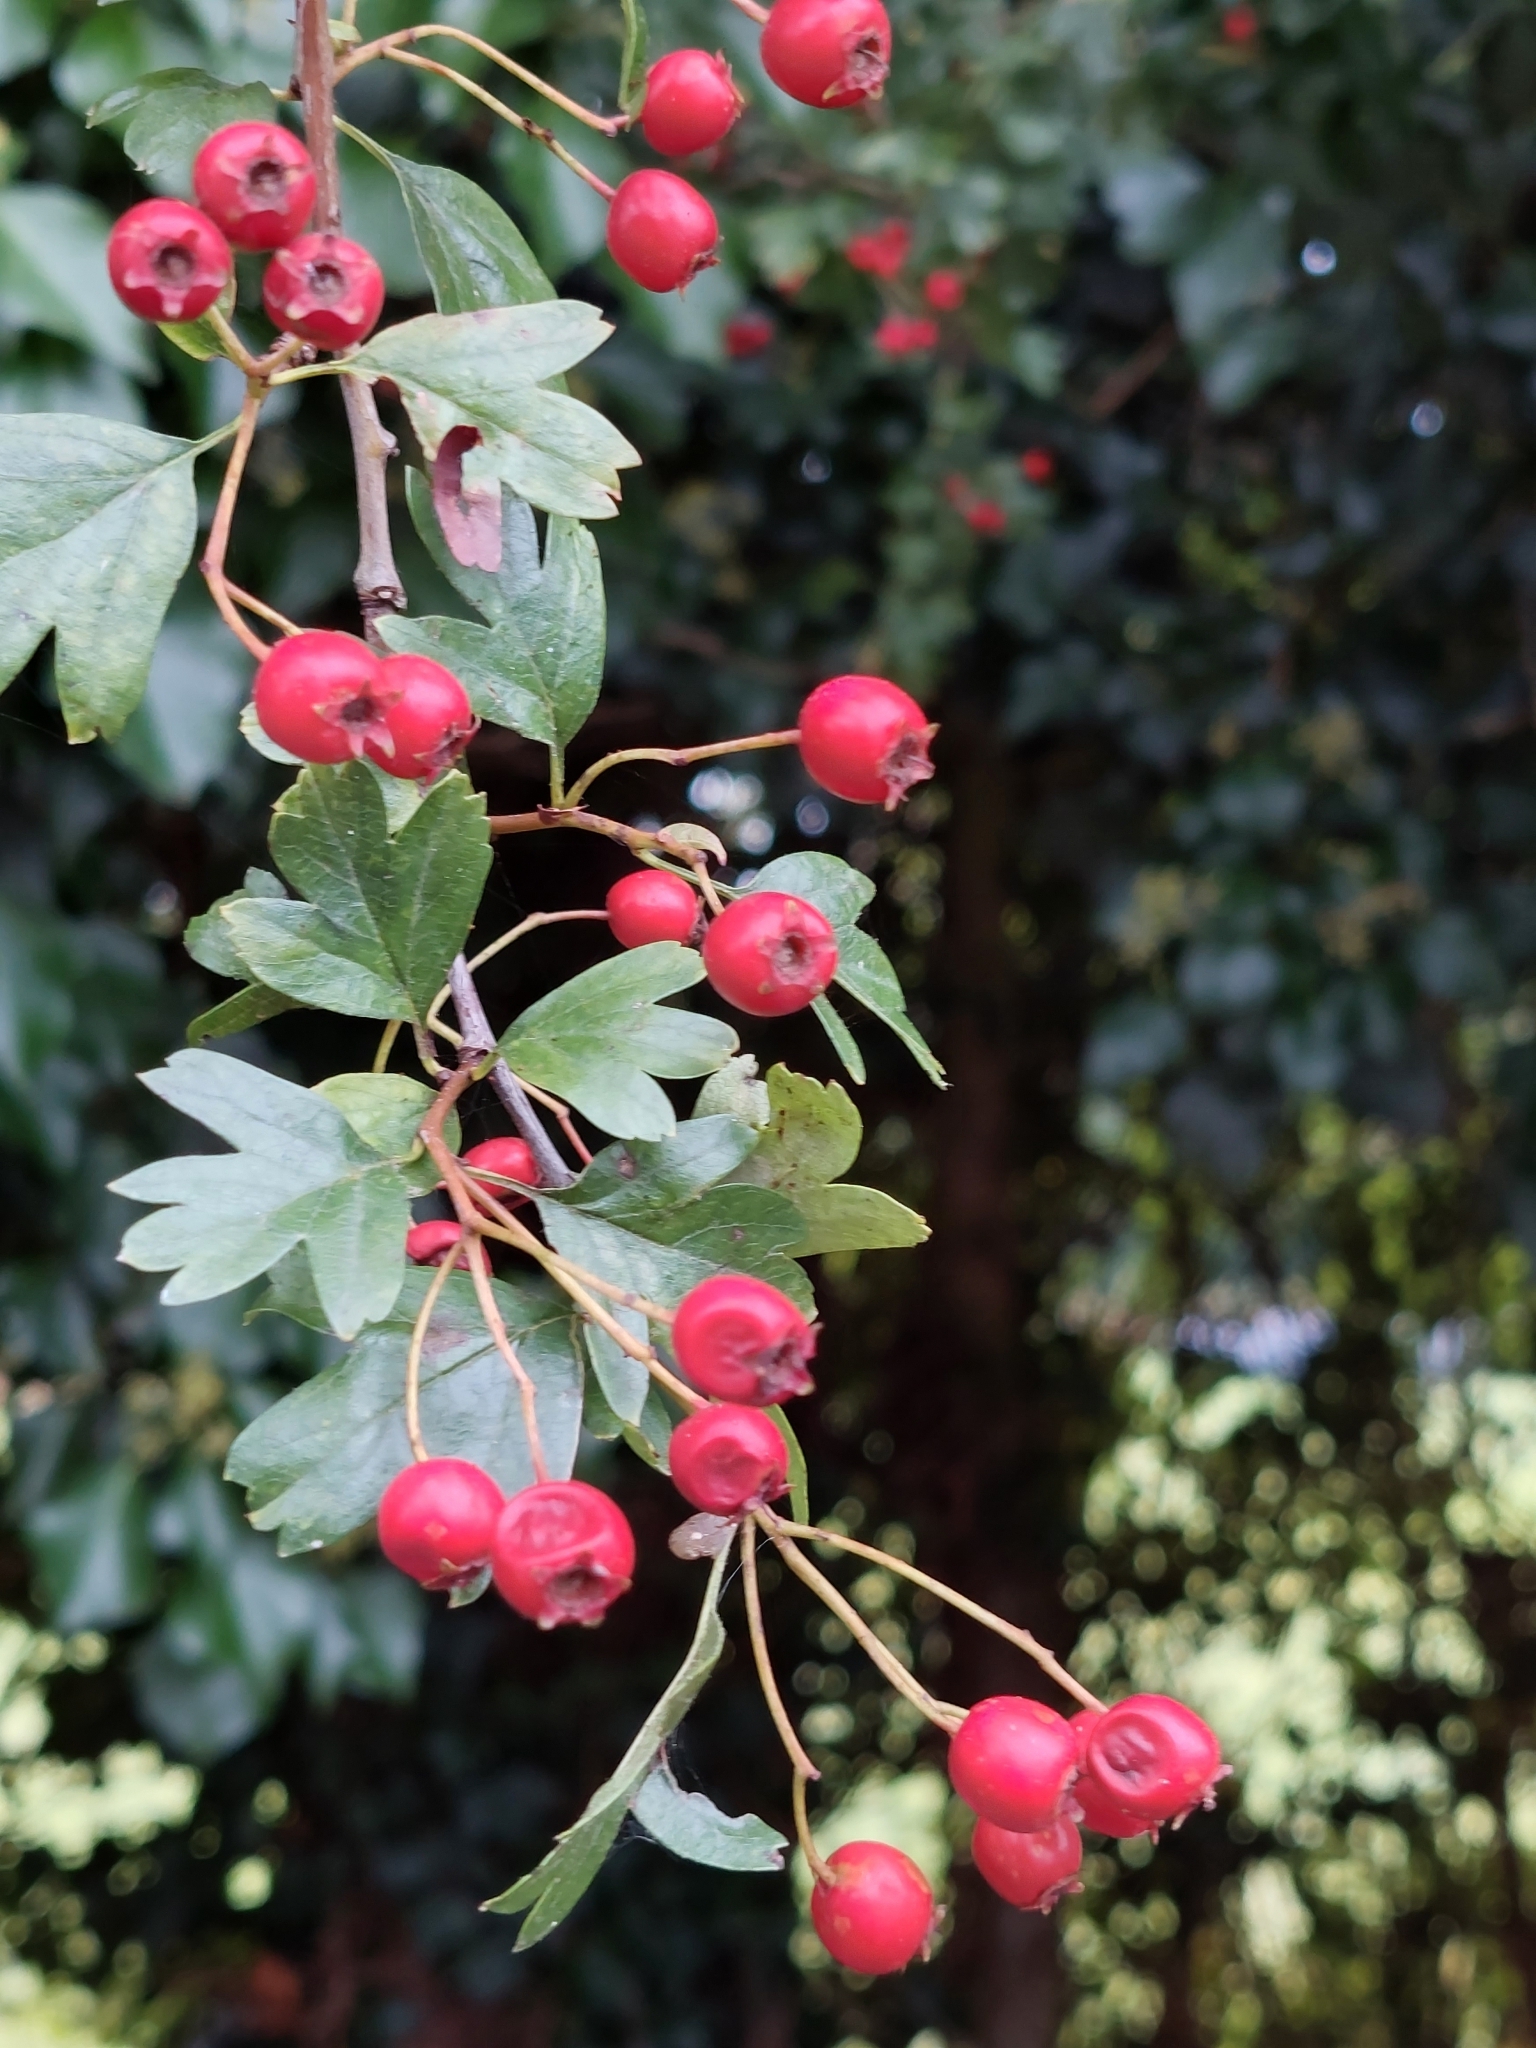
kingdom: Plantae
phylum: Tracheophyta
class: Magnoliopsida
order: Rosales
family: Rosaceae
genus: Crataegus
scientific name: Crataegus monogyna
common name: Hawthorn
